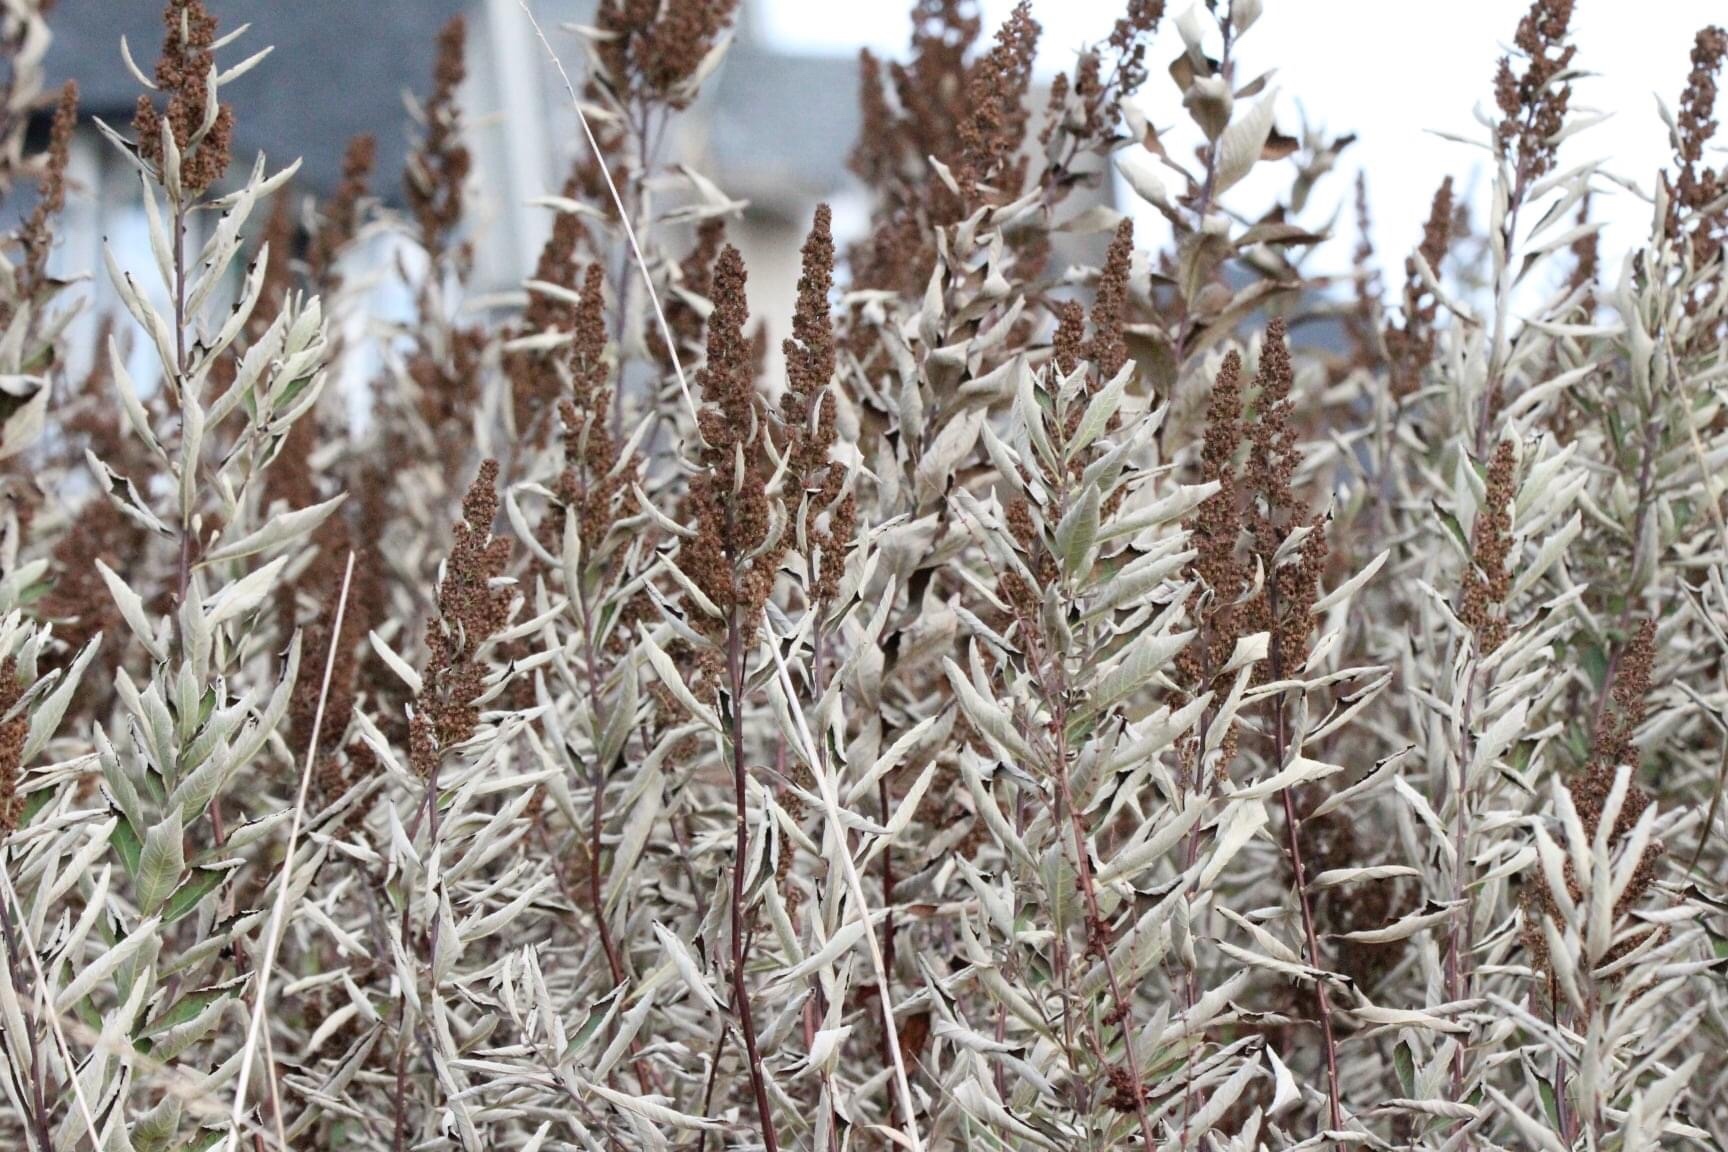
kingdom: Plantae
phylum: Tracheophyta
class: Magnoliopsida
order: Rosales
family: Rosaceae
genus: Spiraea
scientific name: Spiraea douglasii
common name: Steeplebush
